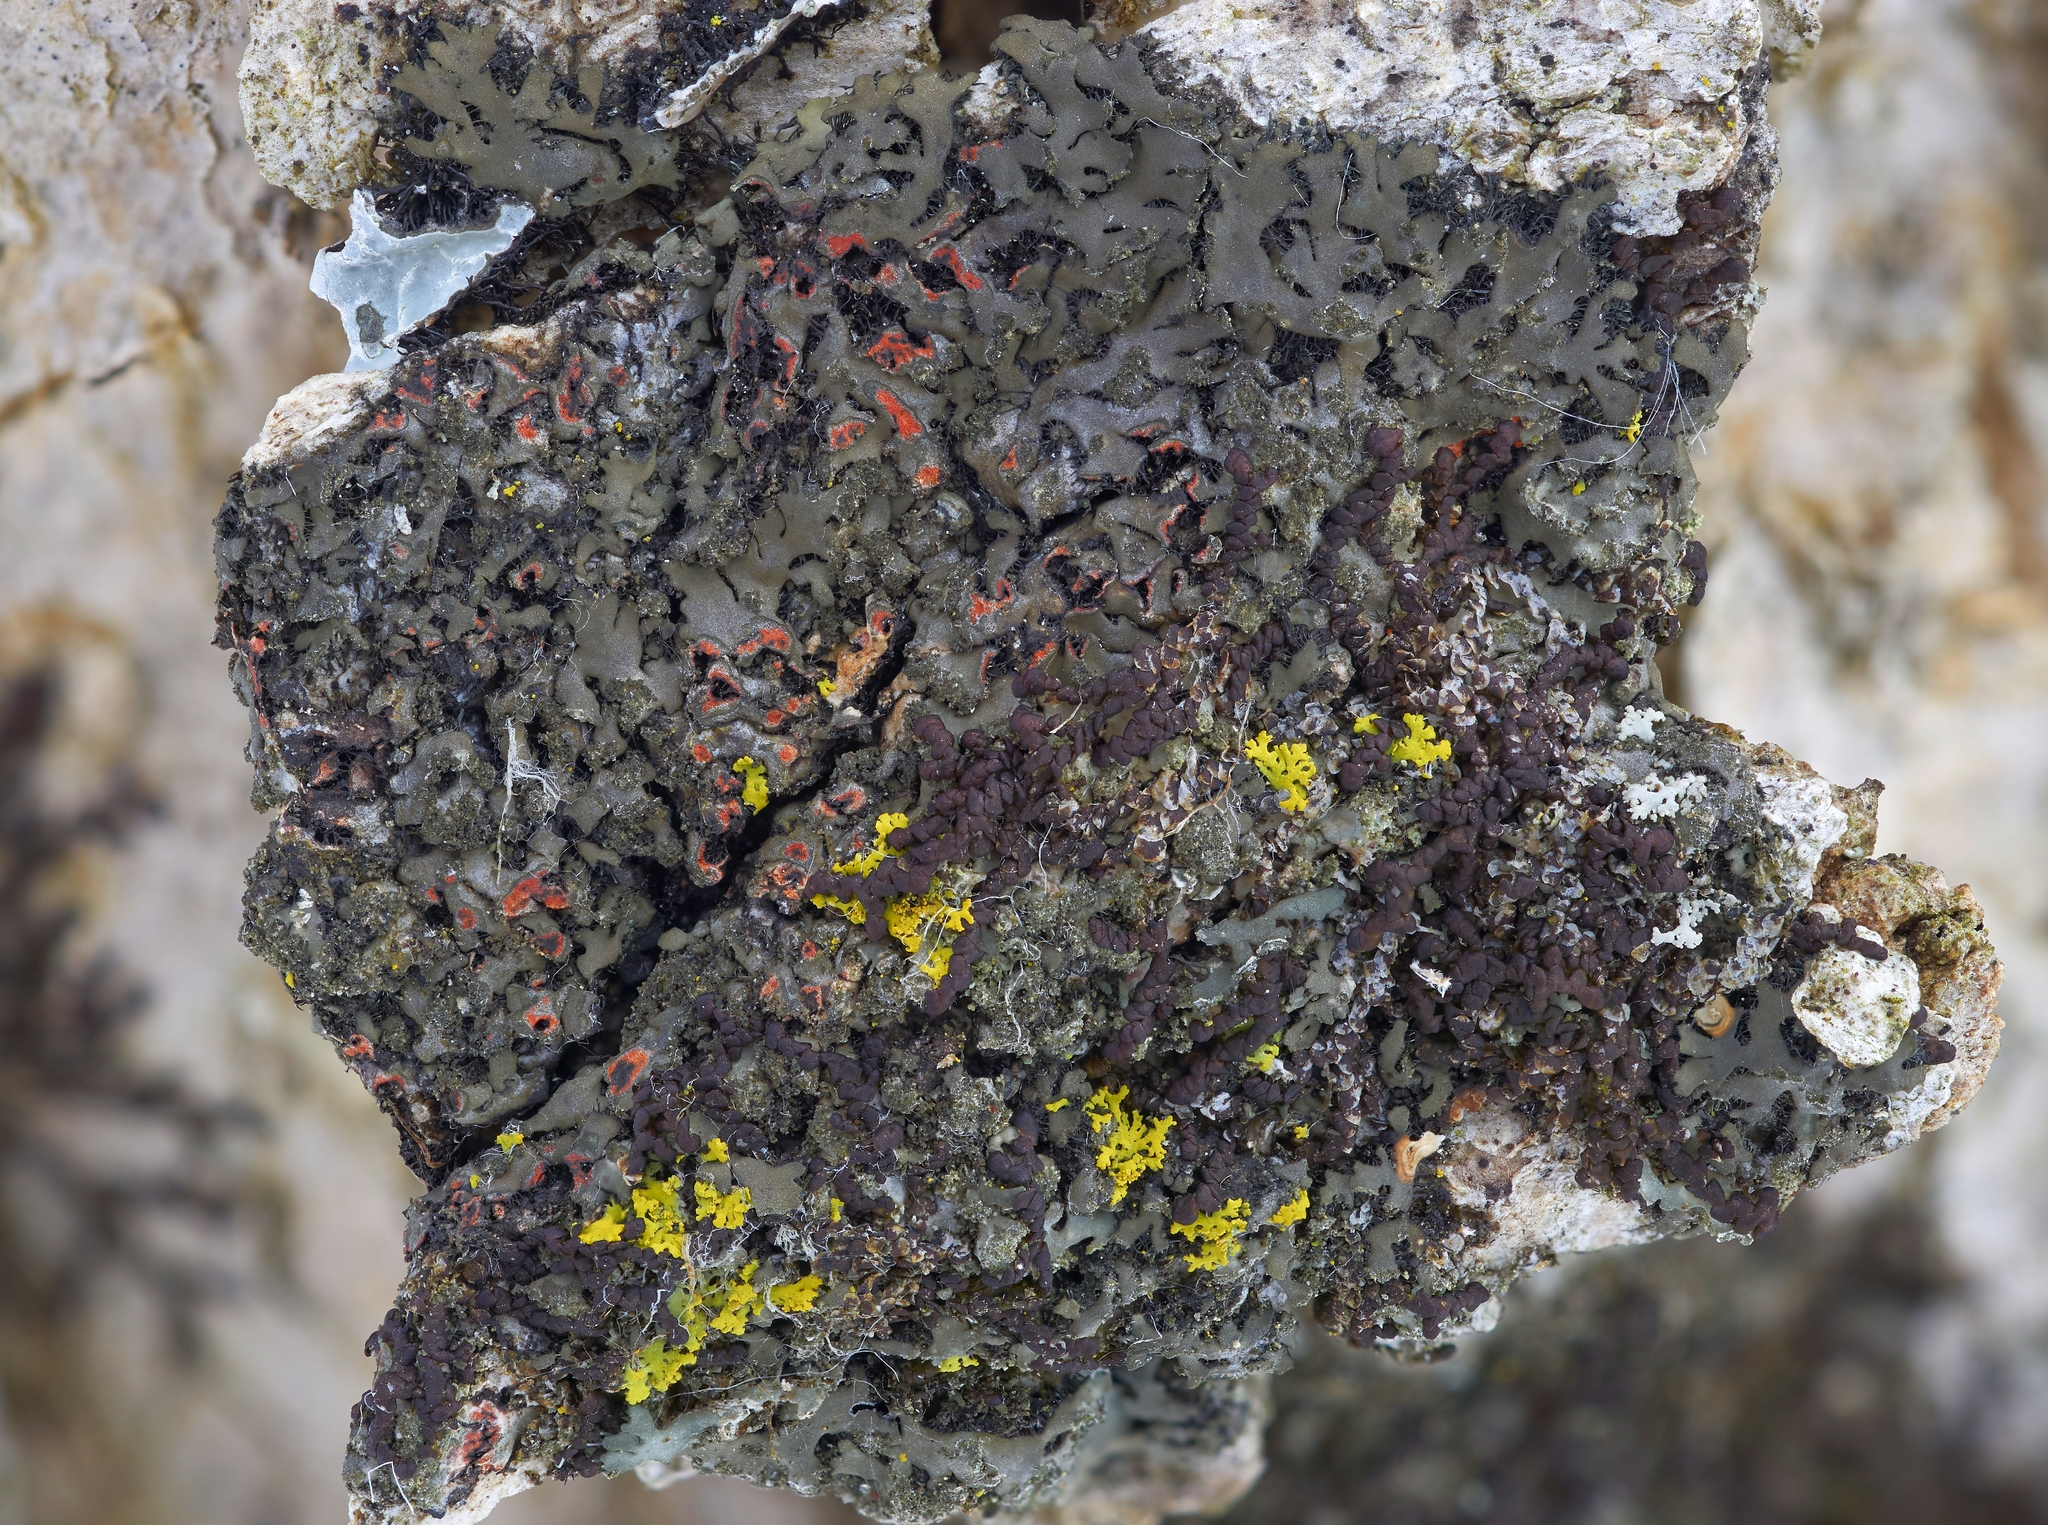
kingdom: Fungi
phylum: Ascomycota
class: Lecanoromycetes
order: Caliciales
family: Physciaceae
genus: Phaeophyscia
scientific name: Phaeophyscia rubropulchra
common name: Orange-cored shadow lichen
